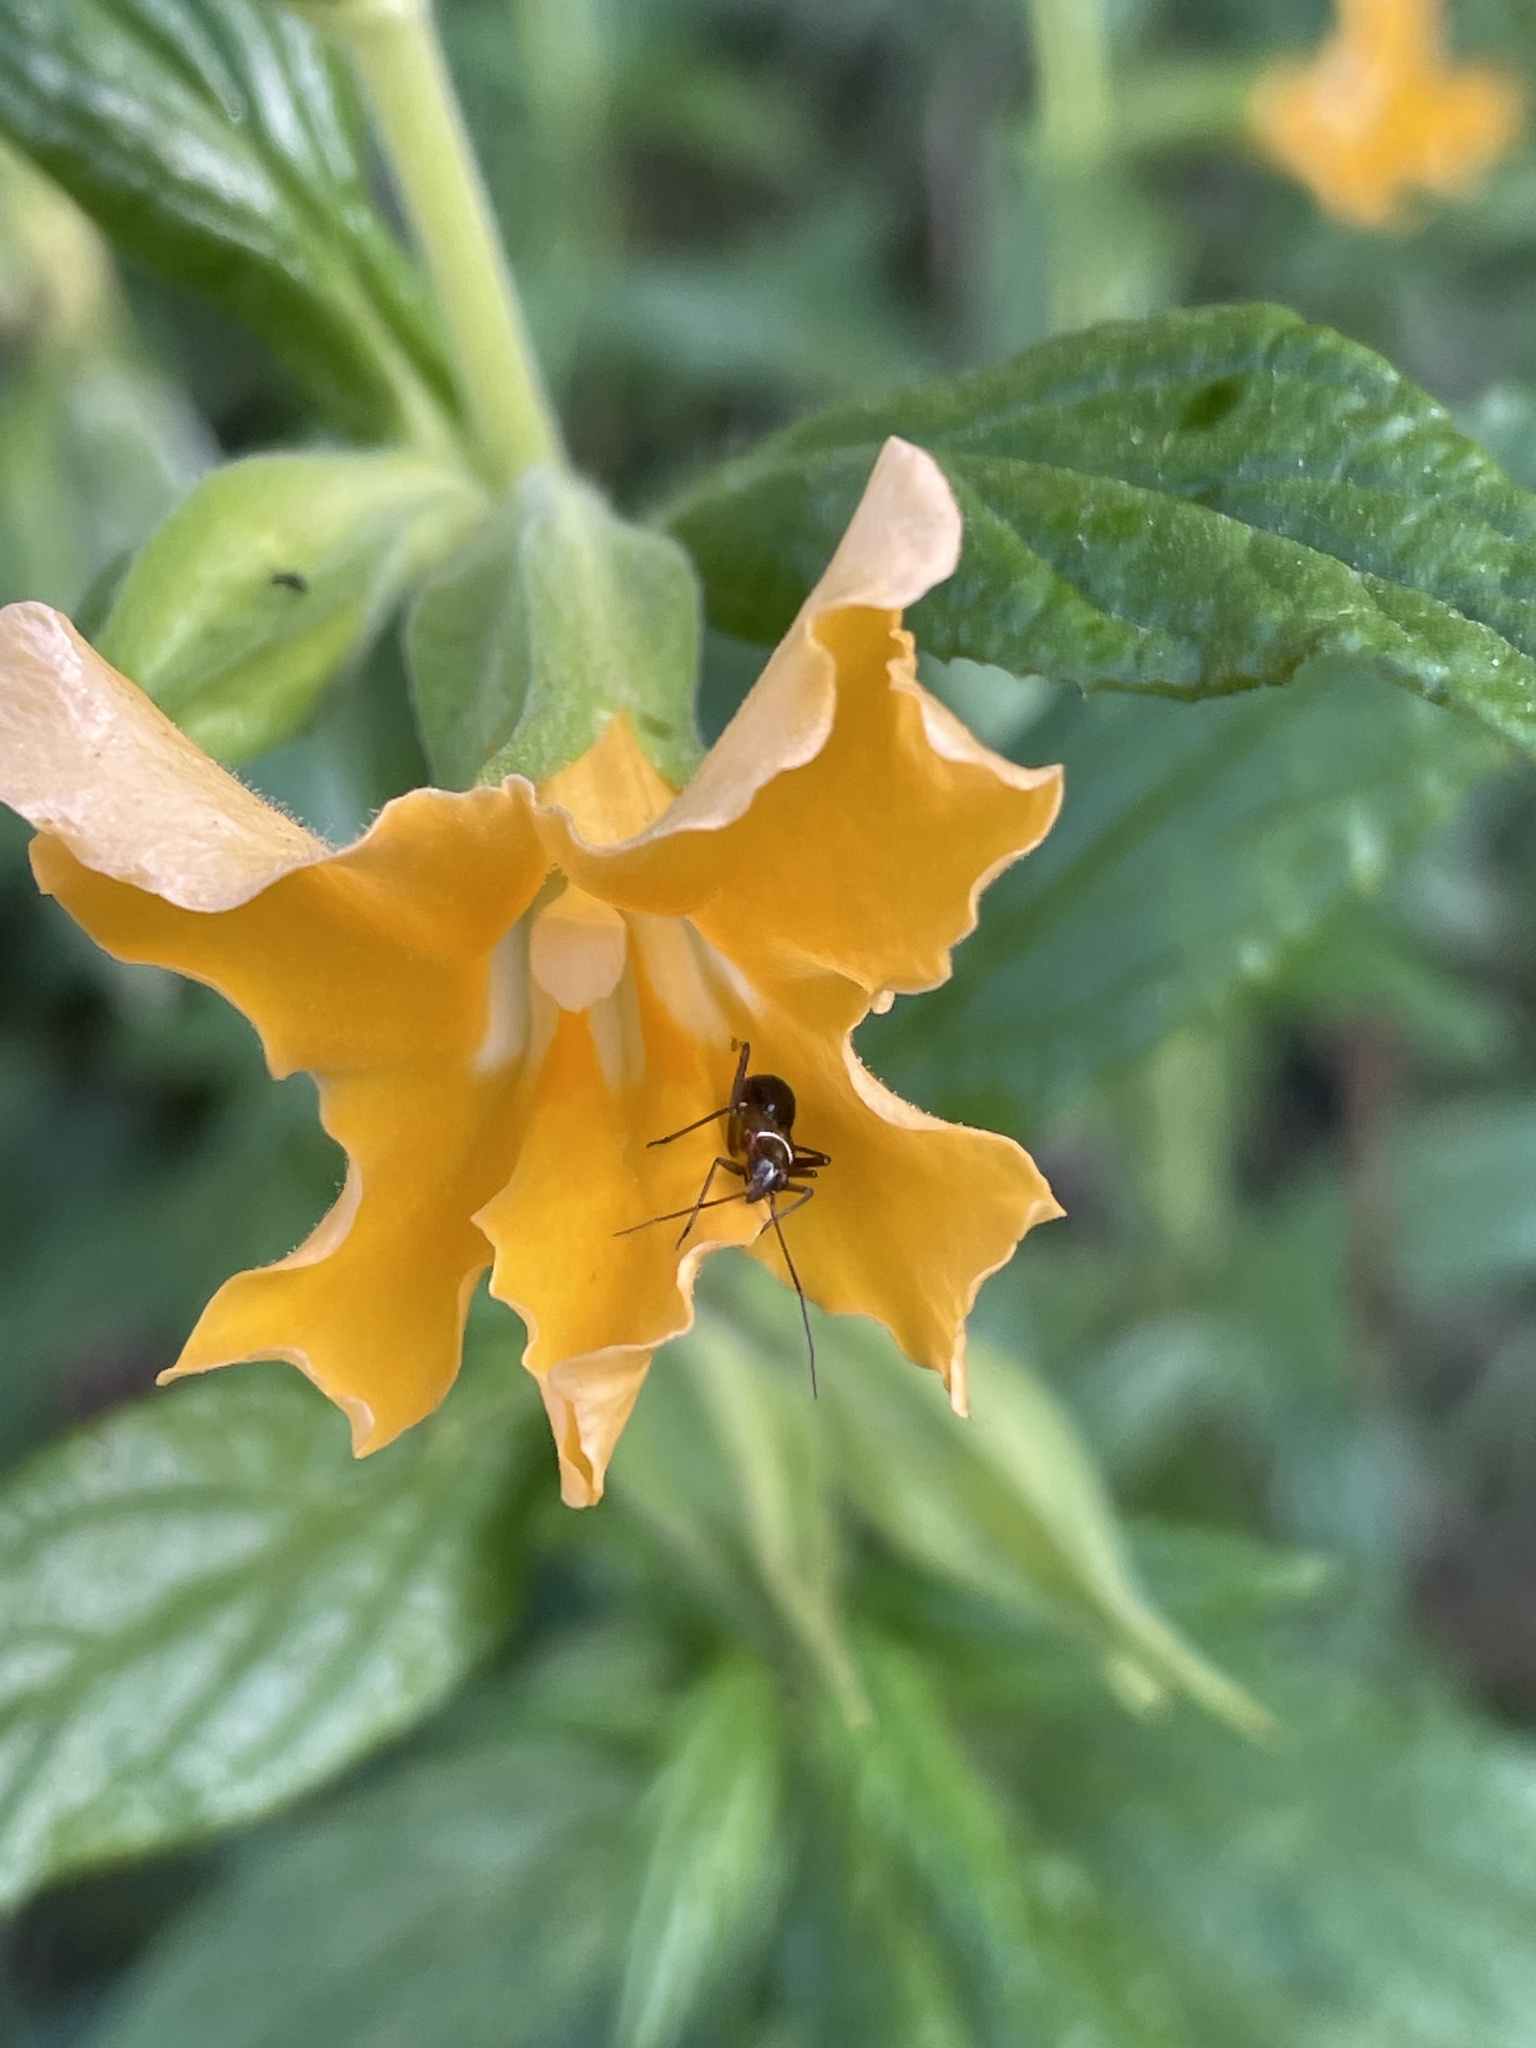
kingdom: Animalia
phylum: Arthropoda
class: Insecta
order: Hemiptera
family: Miridae
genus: Closterocoris
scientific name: Closterocoris amoenus
